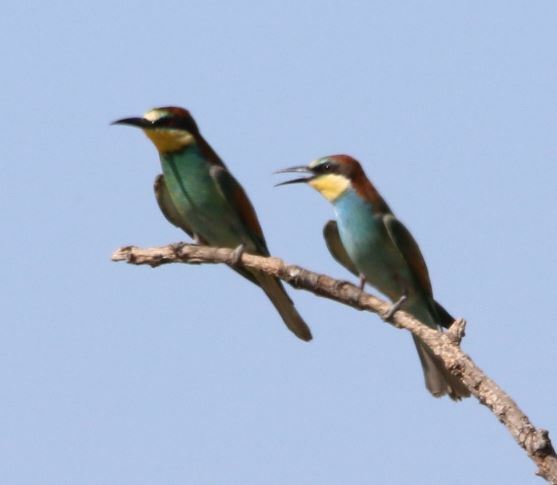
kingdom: Animalia
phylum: Chordata
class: Aves
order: Coraciiformes
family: Meropidae
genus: Merops
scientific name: Merops apiaster
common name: European bee-eater
